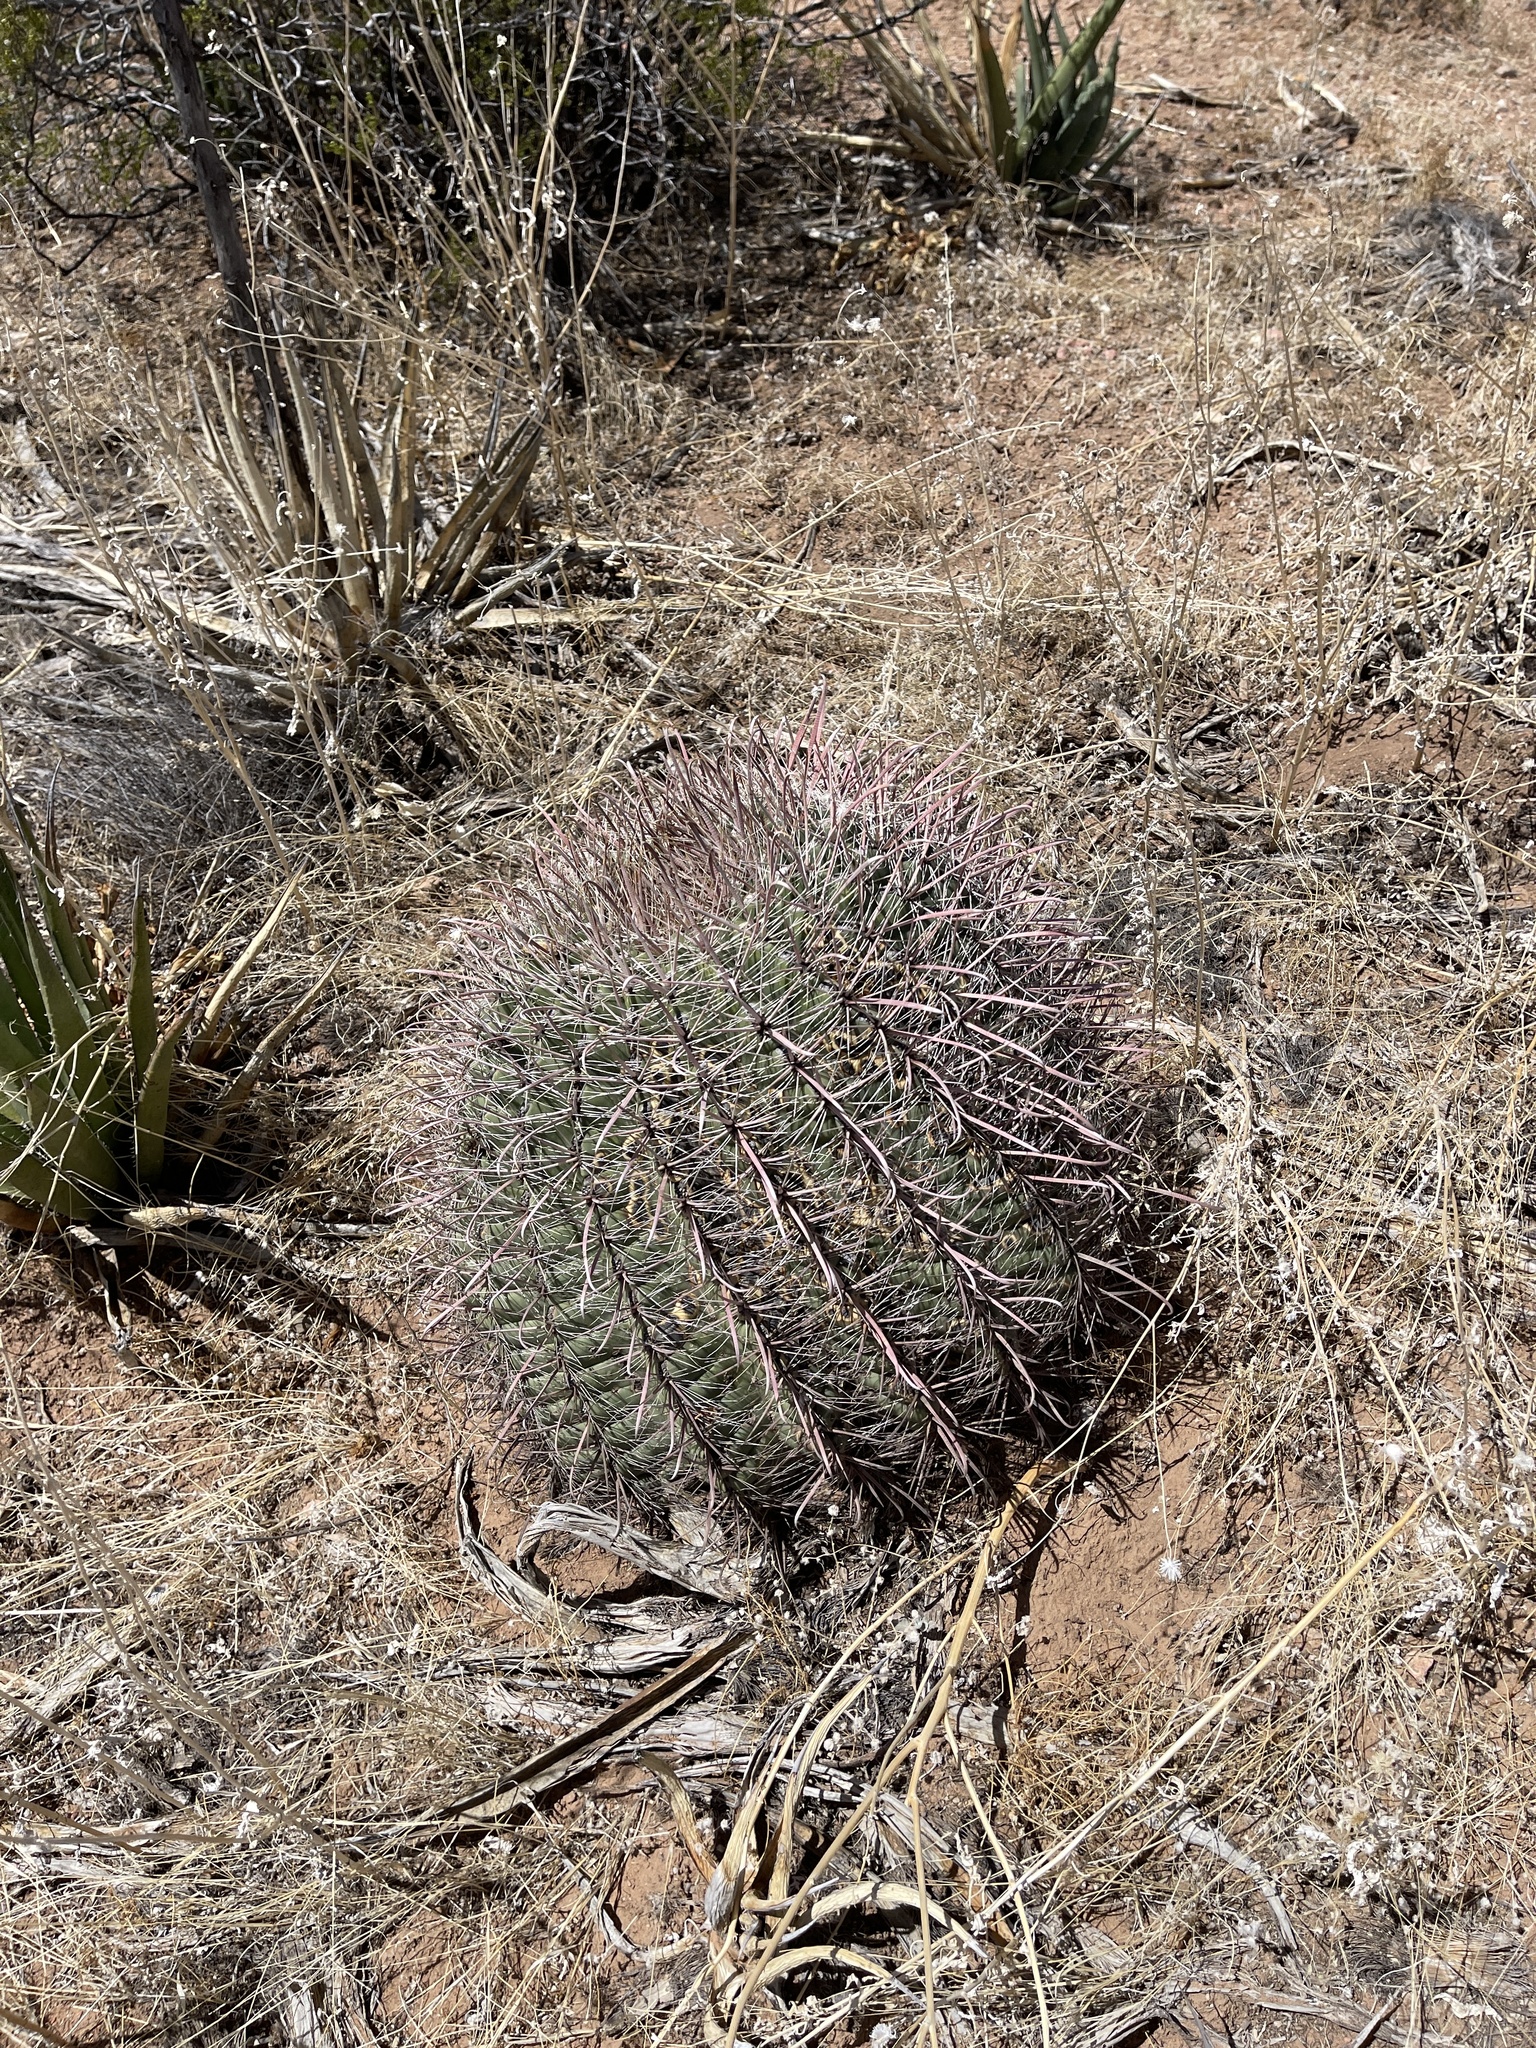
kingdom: Plantae
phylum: Tracheophyta
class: Magnoliopsida
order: Caryophyllales
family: Cactaceae
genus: Ferocactus
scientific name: Ferocactus wislizeni
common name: Candy barrel cactus
